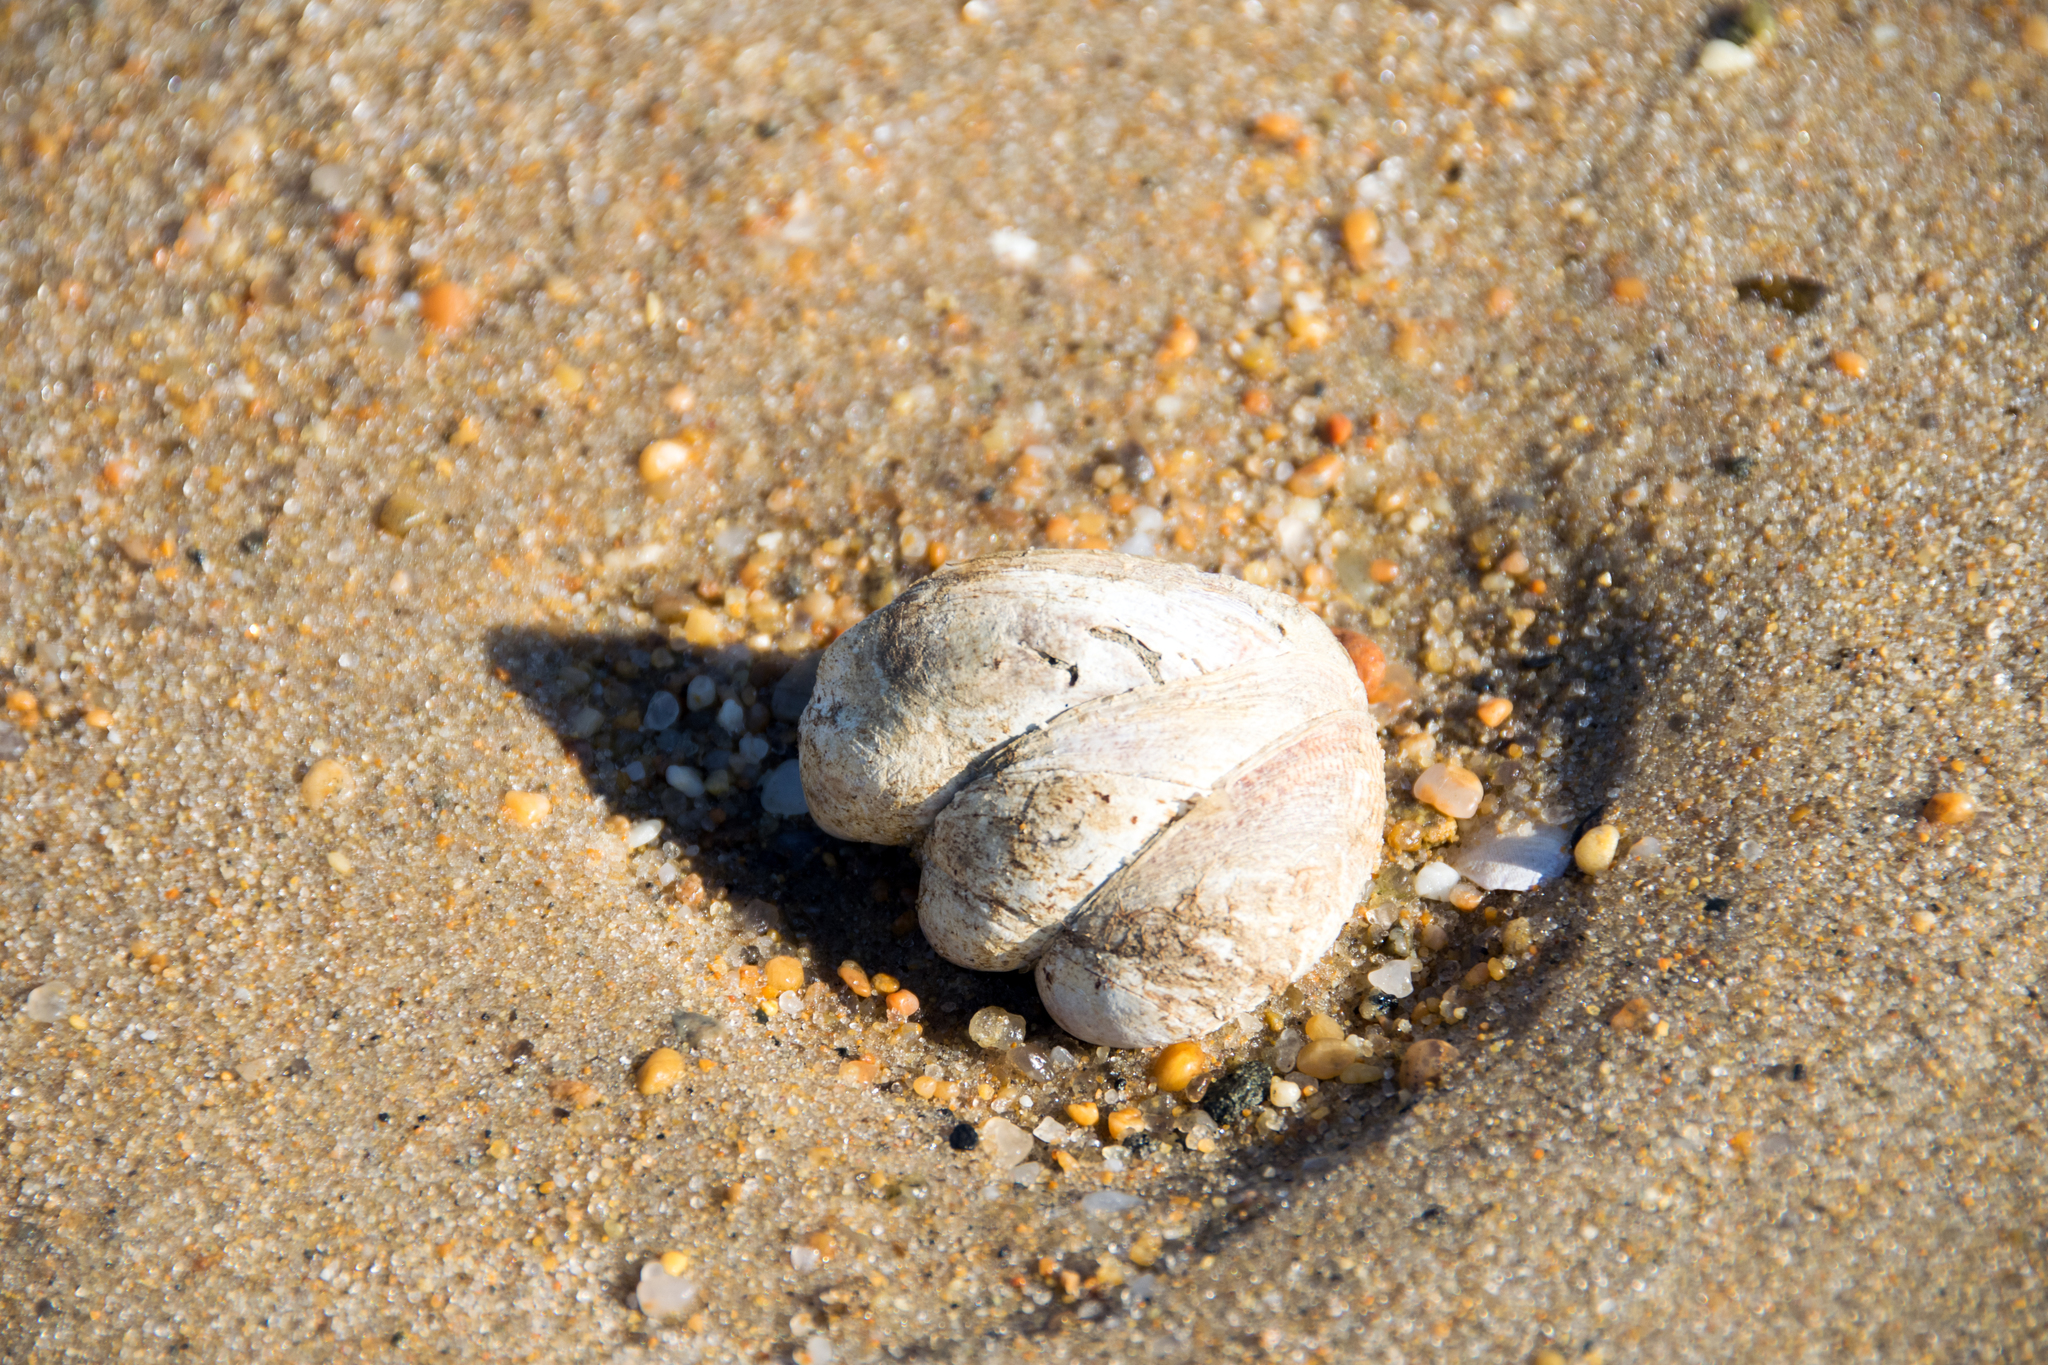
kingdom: Animalia
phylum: Mollusca
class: Gastropoda
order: Littorinimorpha
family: Calyptraeidae
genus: Crepidula
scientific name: Crepidula fornicata
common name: Slipper limpet
